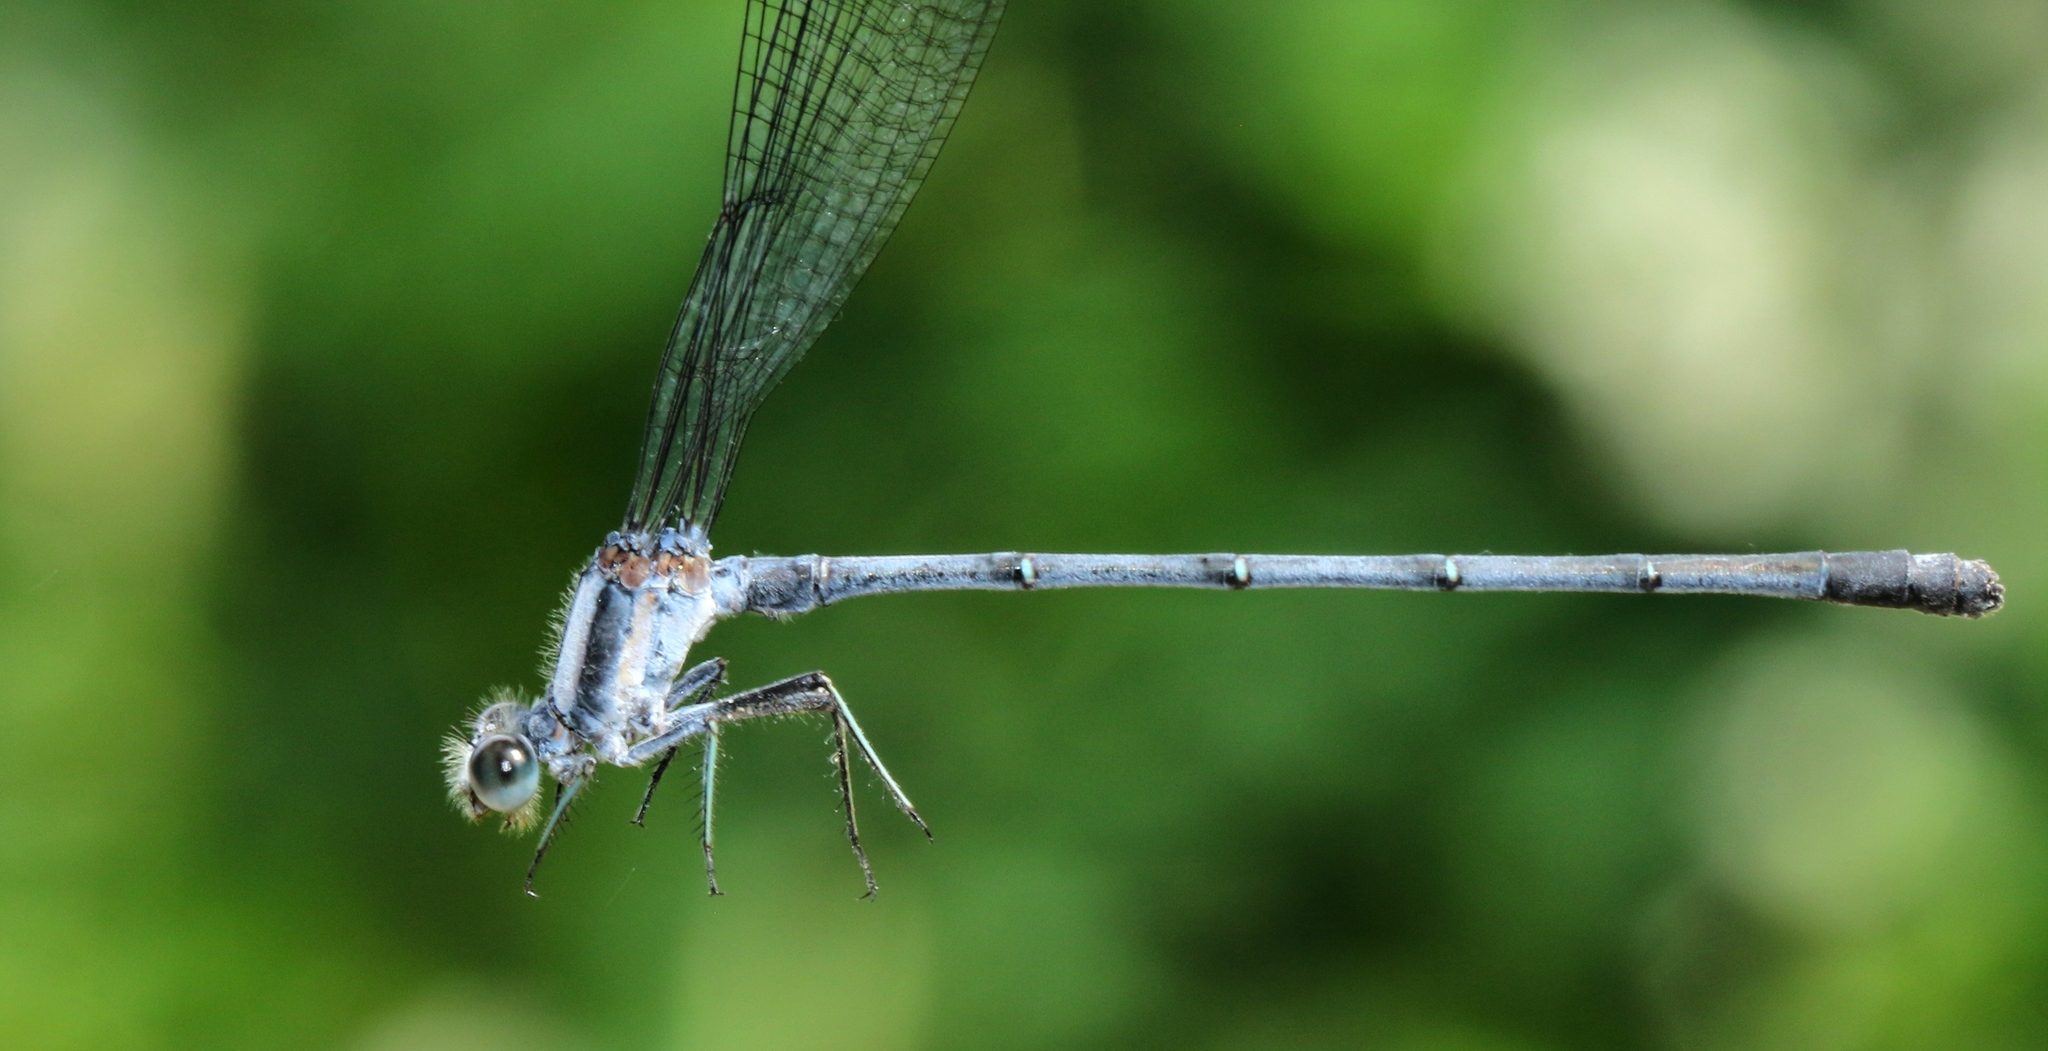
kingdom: Animalia
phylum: Arthropoda
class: Insecta
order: Odonata
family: Coenagrionidae
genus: Argia
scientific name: Argia moesta
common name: Powdered dancer
